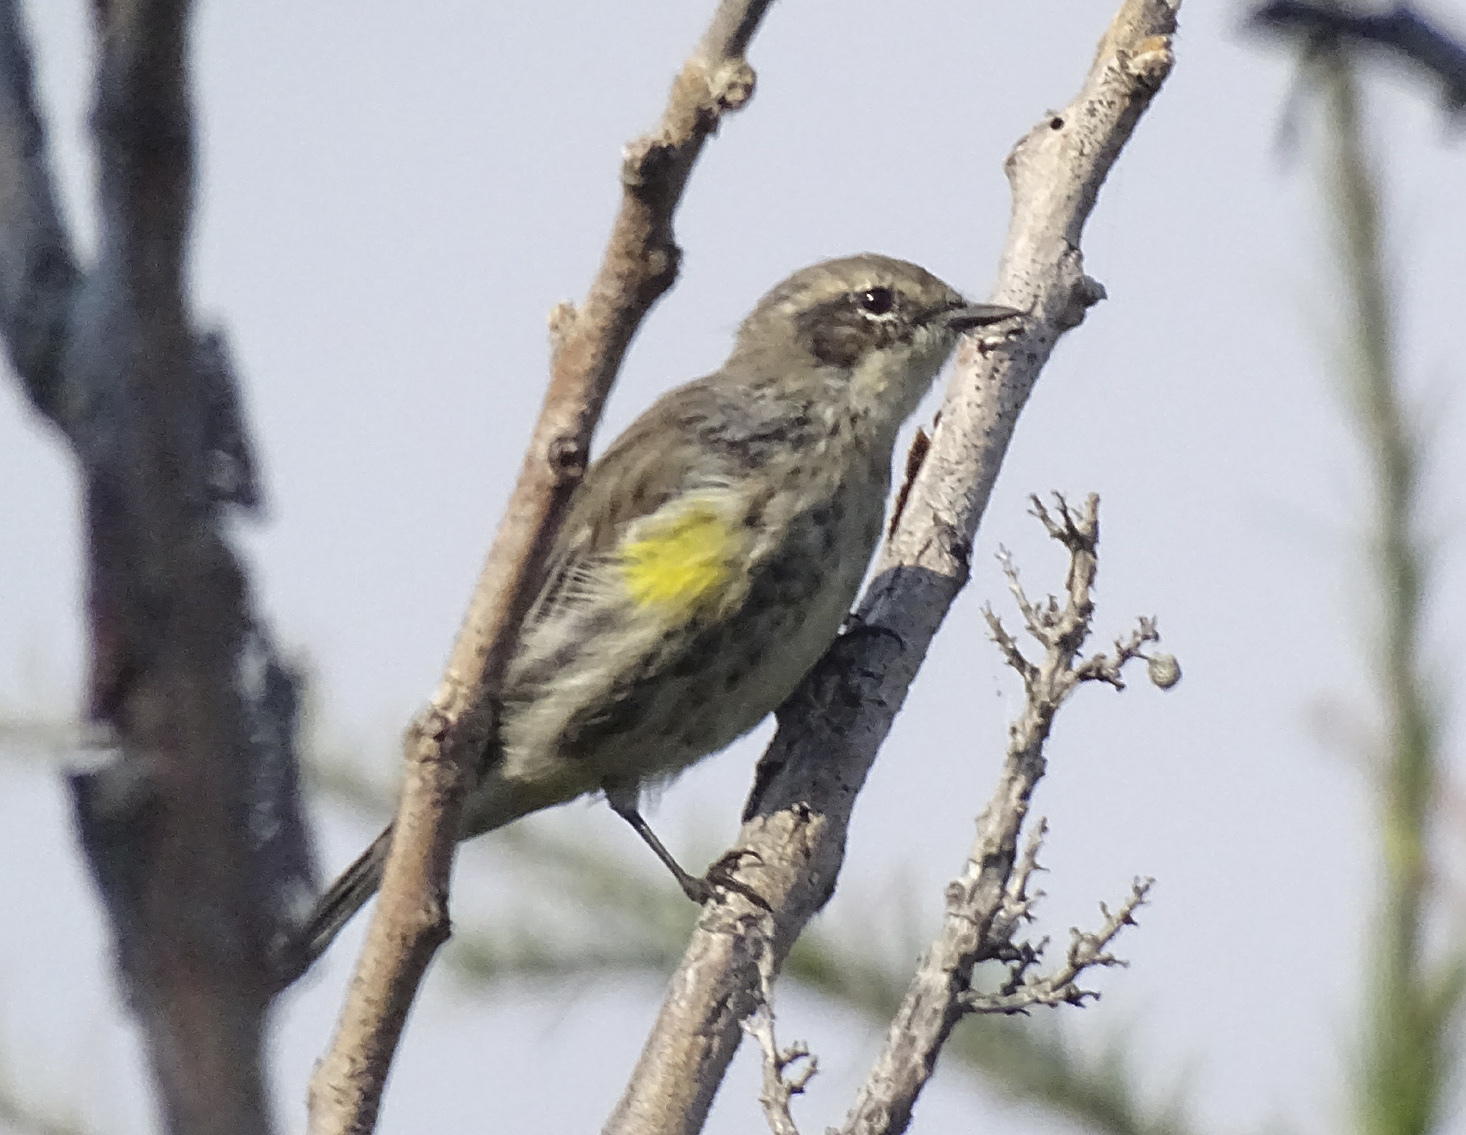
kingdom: Animalia
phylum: Chordata
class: Aves
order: Passeriformes
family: Parulidae
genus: Setophaga
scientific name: Setophaga coronata
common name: Myrtle warbler
